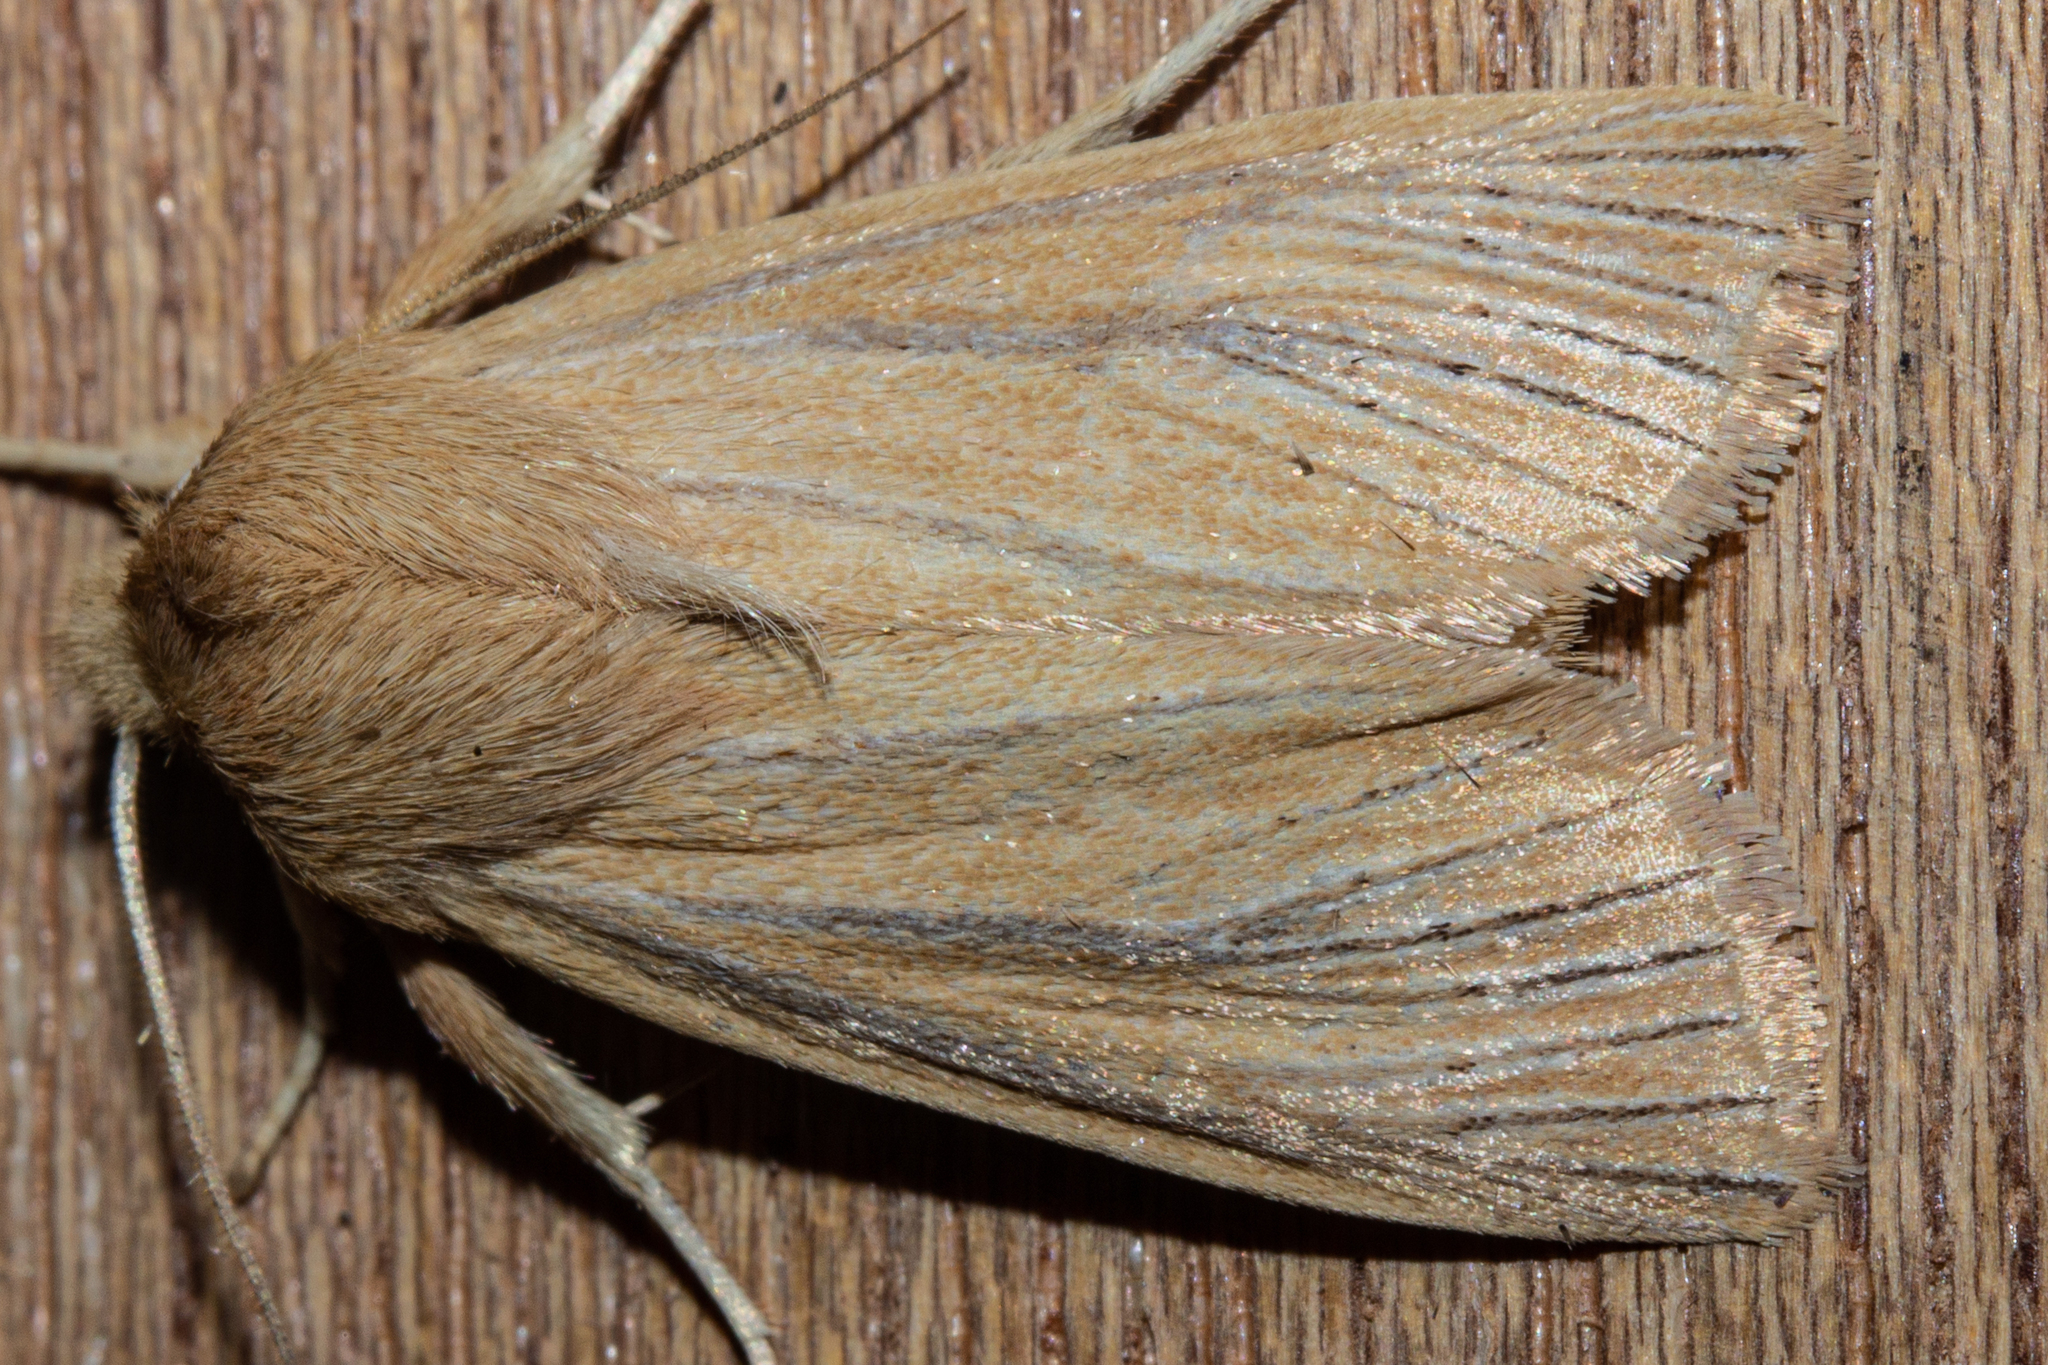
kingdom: Animalia
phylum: Arthropoda
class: Insecta
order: Lepidoptera
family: Noctuidae
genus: Ichneutica
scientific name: Ichneutica arotis
